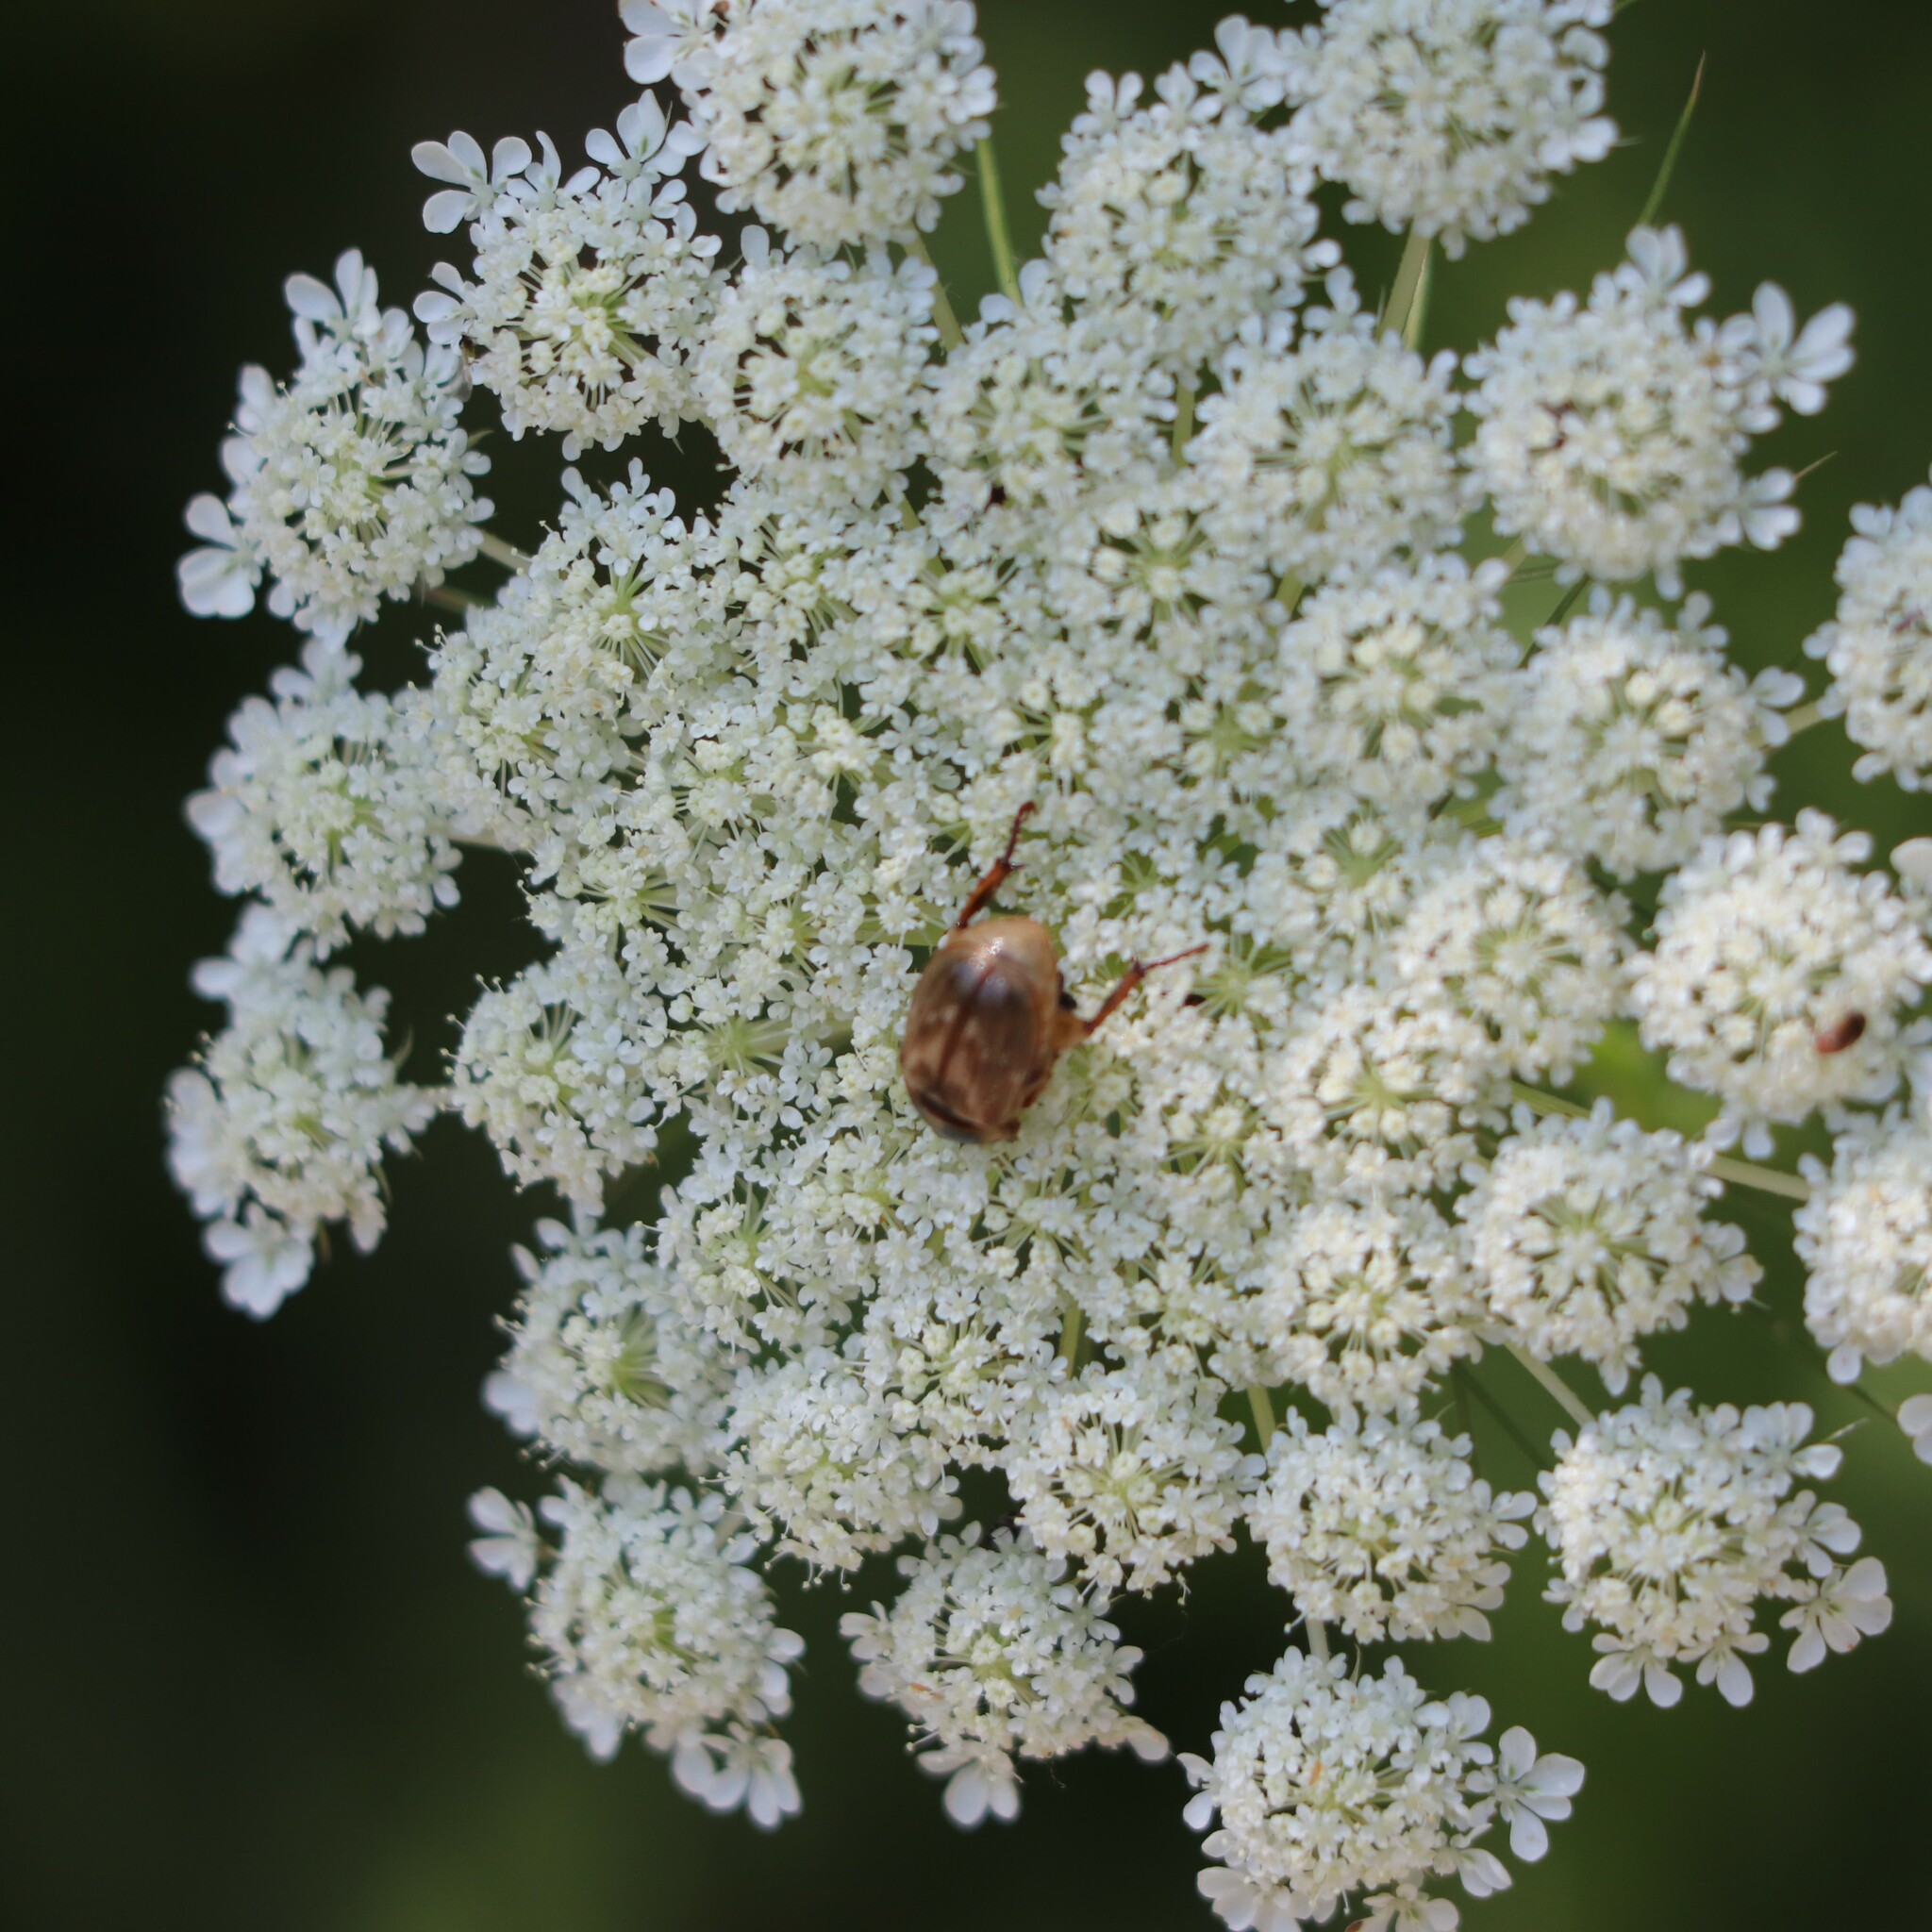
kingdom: Animalia
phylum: Arthropoda
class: Insecta
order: Coleoptera
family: Scarabaeidae
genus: Exomala
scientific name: Exomala orientalis
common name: Oriental beetle
